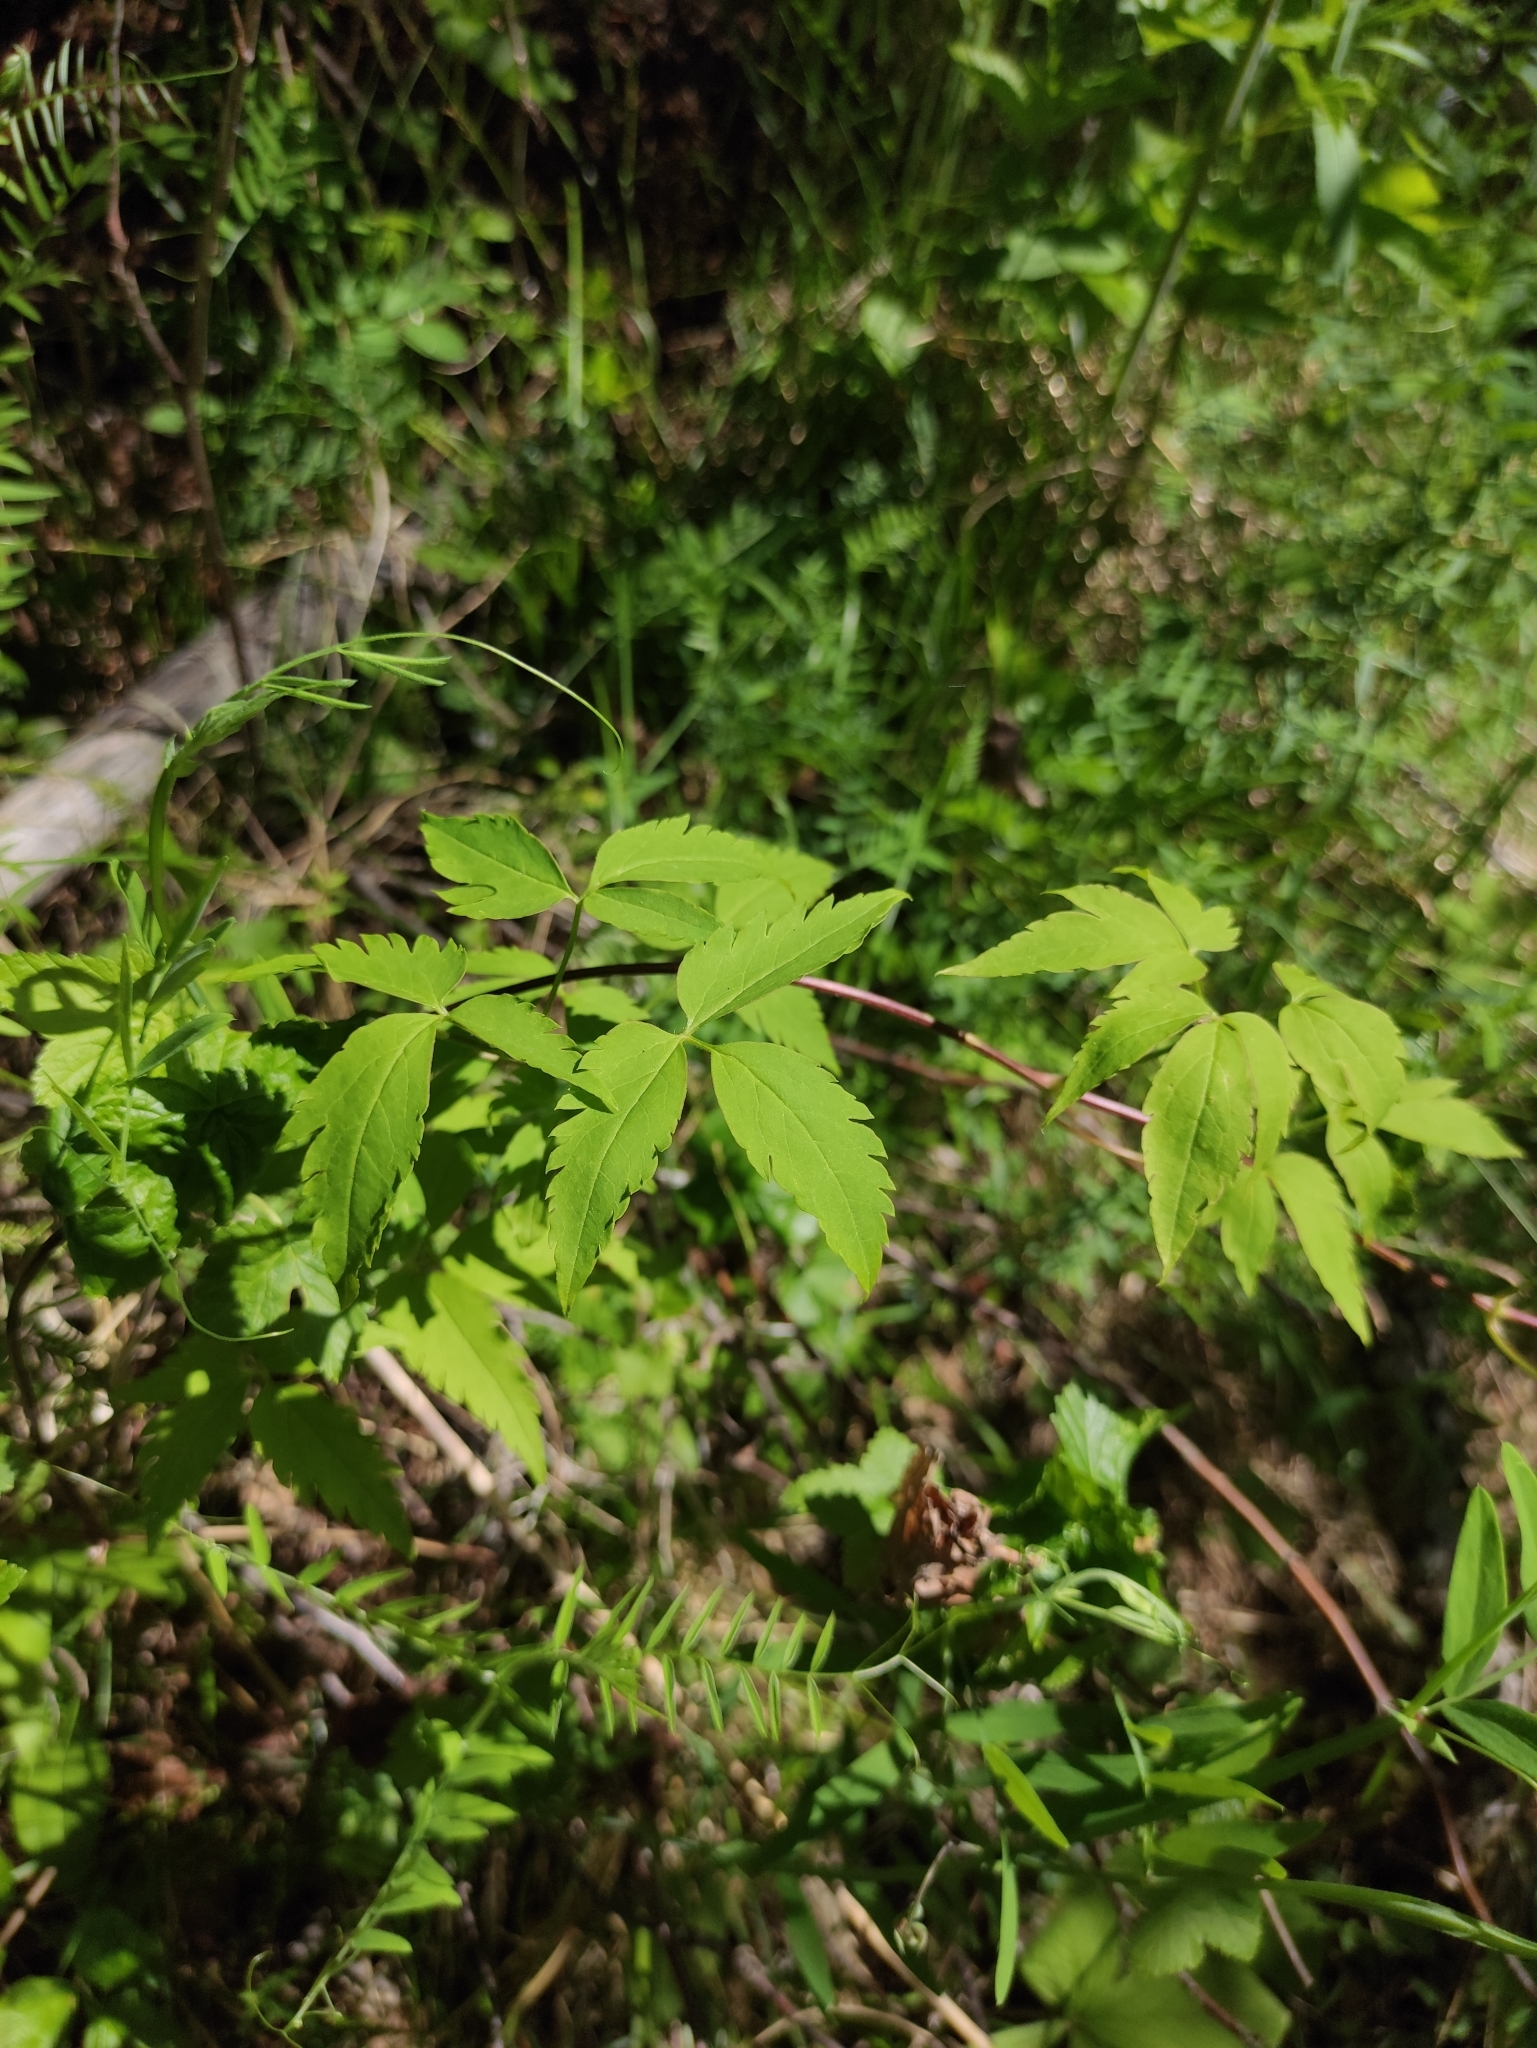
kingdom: Plantae
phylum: Tracheophyta
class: Magnoliopsida
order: Ranunculales
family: Ranunculaceae
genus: Clematis
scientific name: Clematis sibirica
